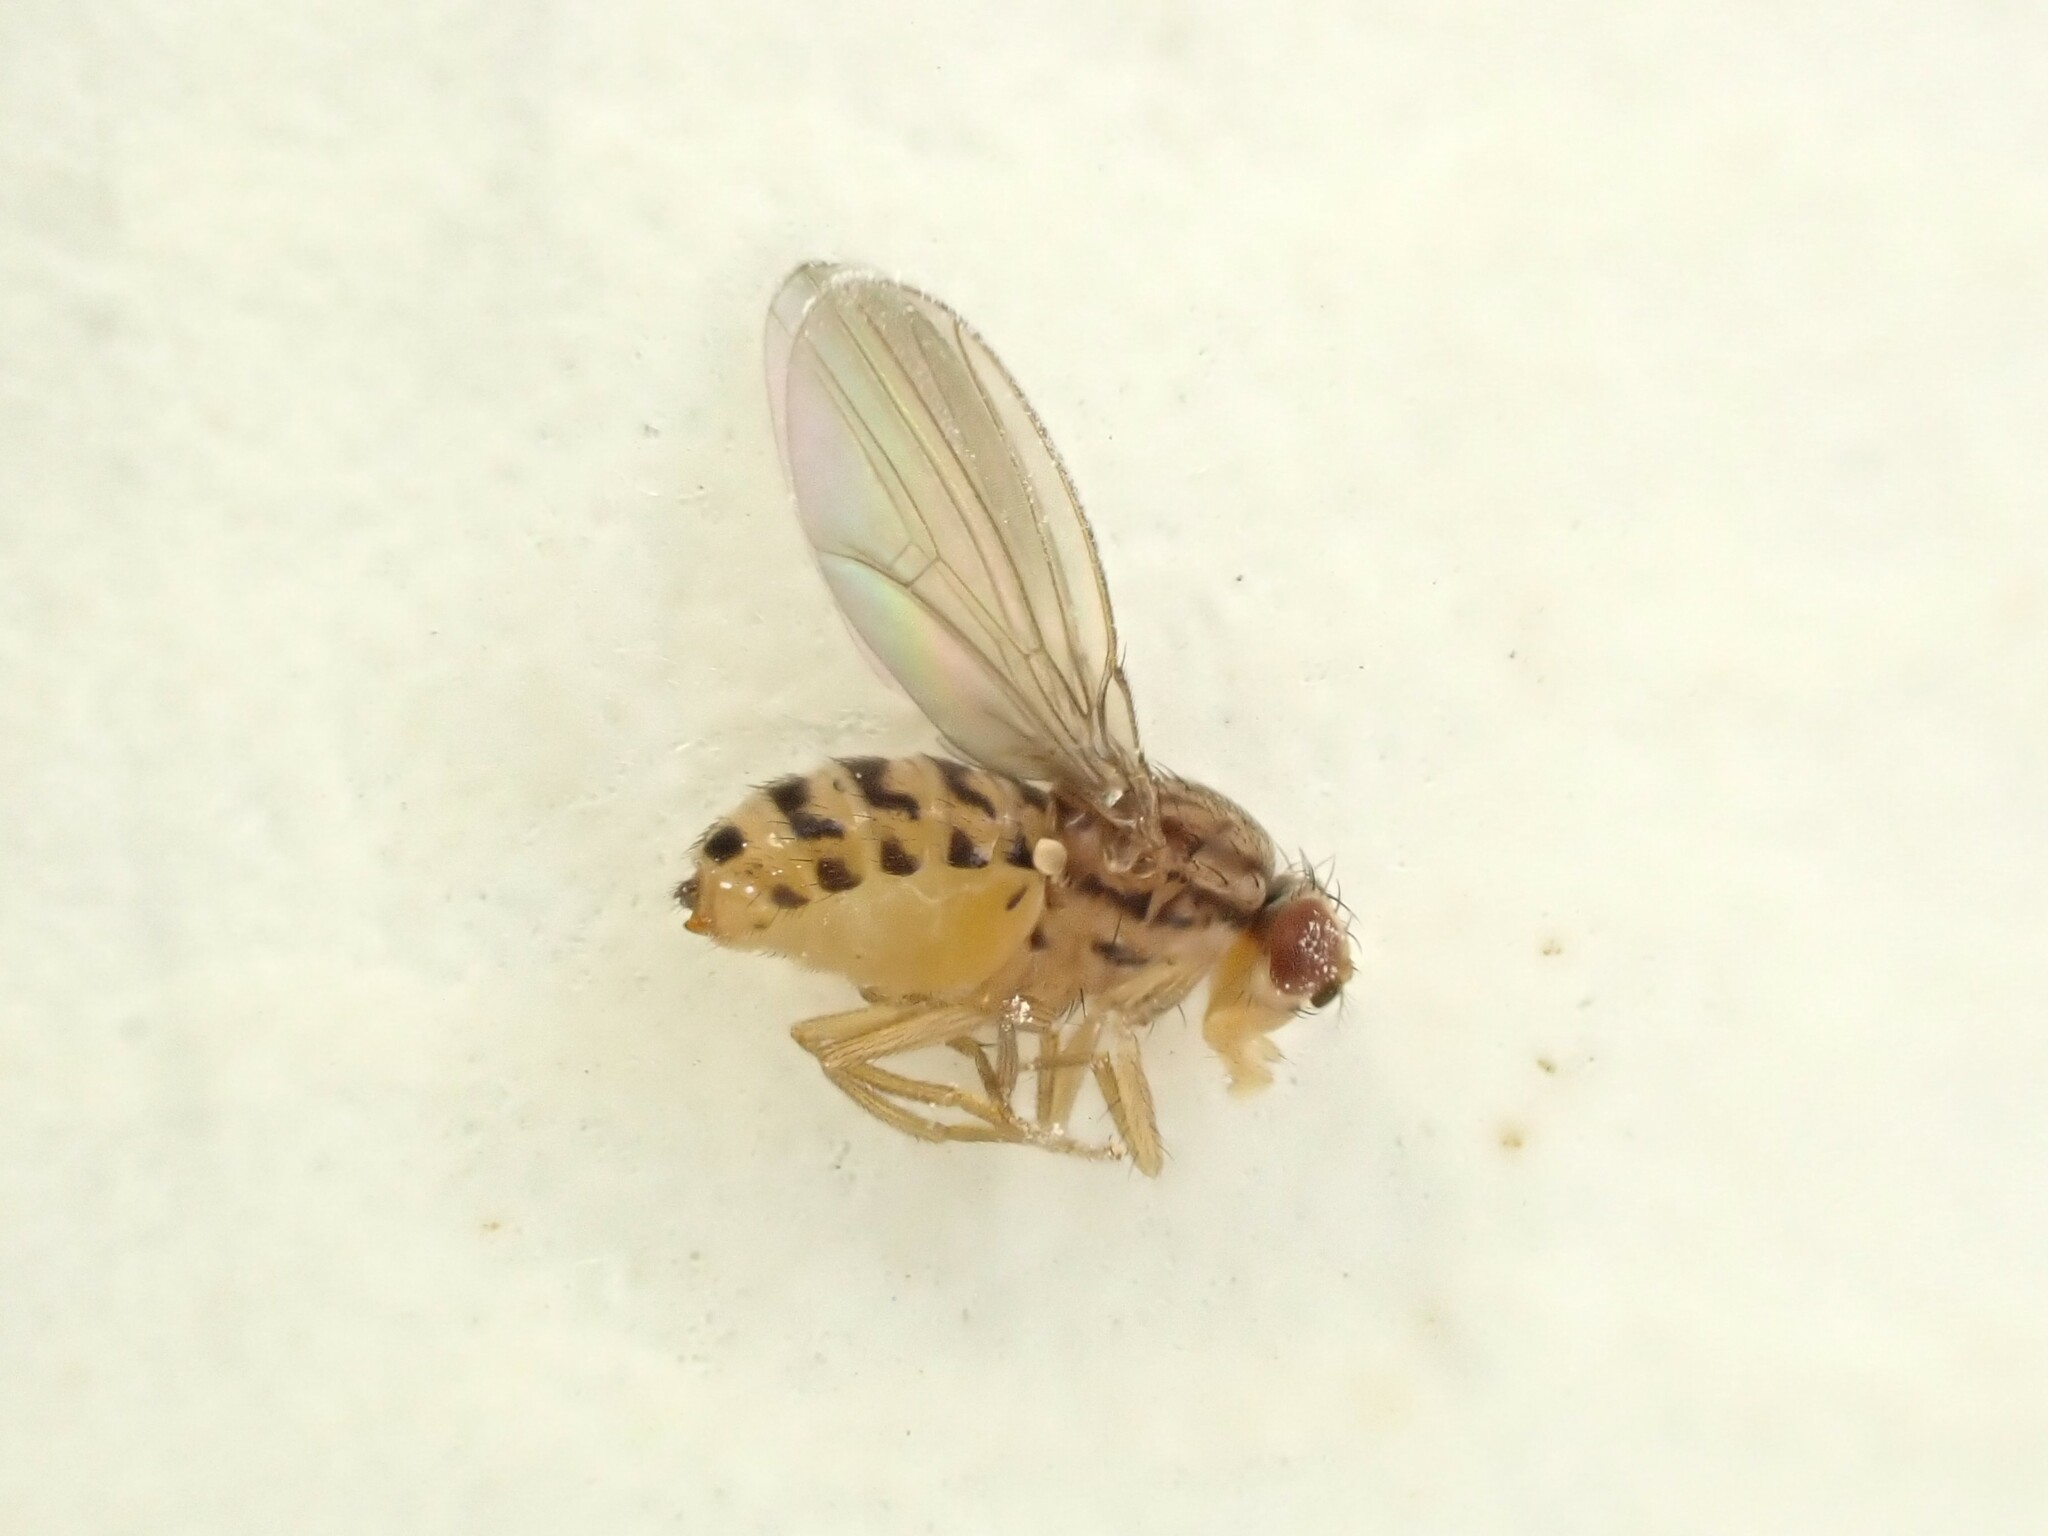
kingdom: Animalia
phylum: Arthropoda
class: Insecta
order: Diptera
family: Drosophilidae
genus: Drosophila
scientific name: Drosophila busckii
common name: Pomace fly
